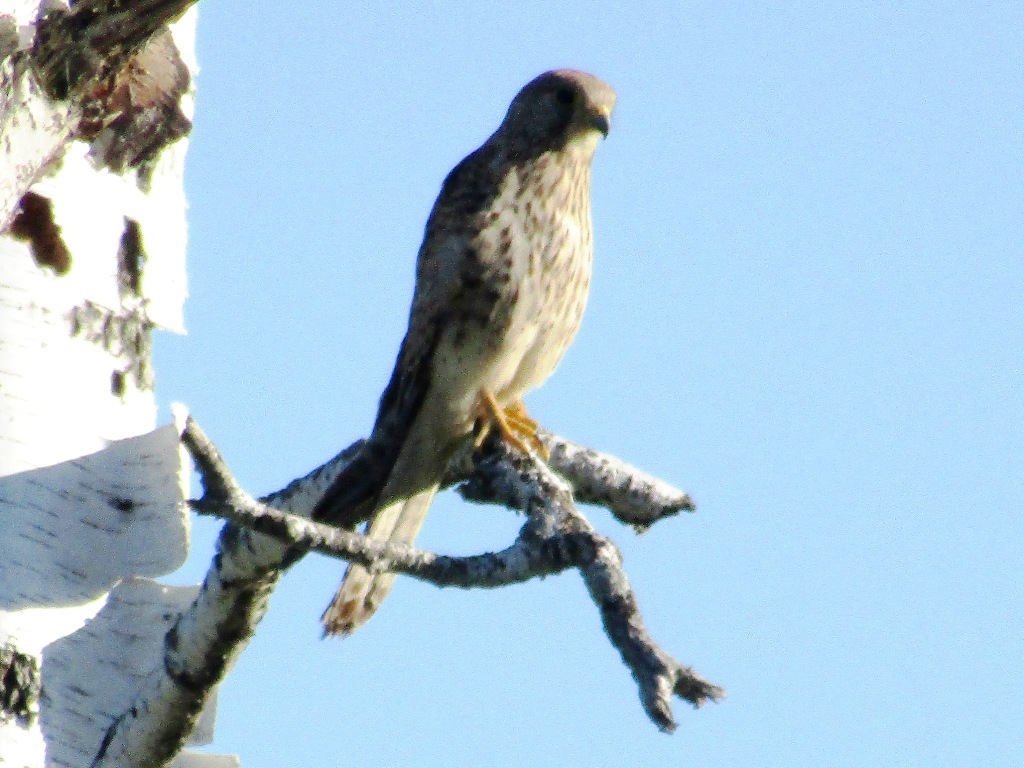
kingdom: Animalia
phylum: Chordata
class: Aves
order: Falconiformes
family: Falconidae
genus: Falco
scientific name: Falco tinnunculus
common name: Common kestrel
